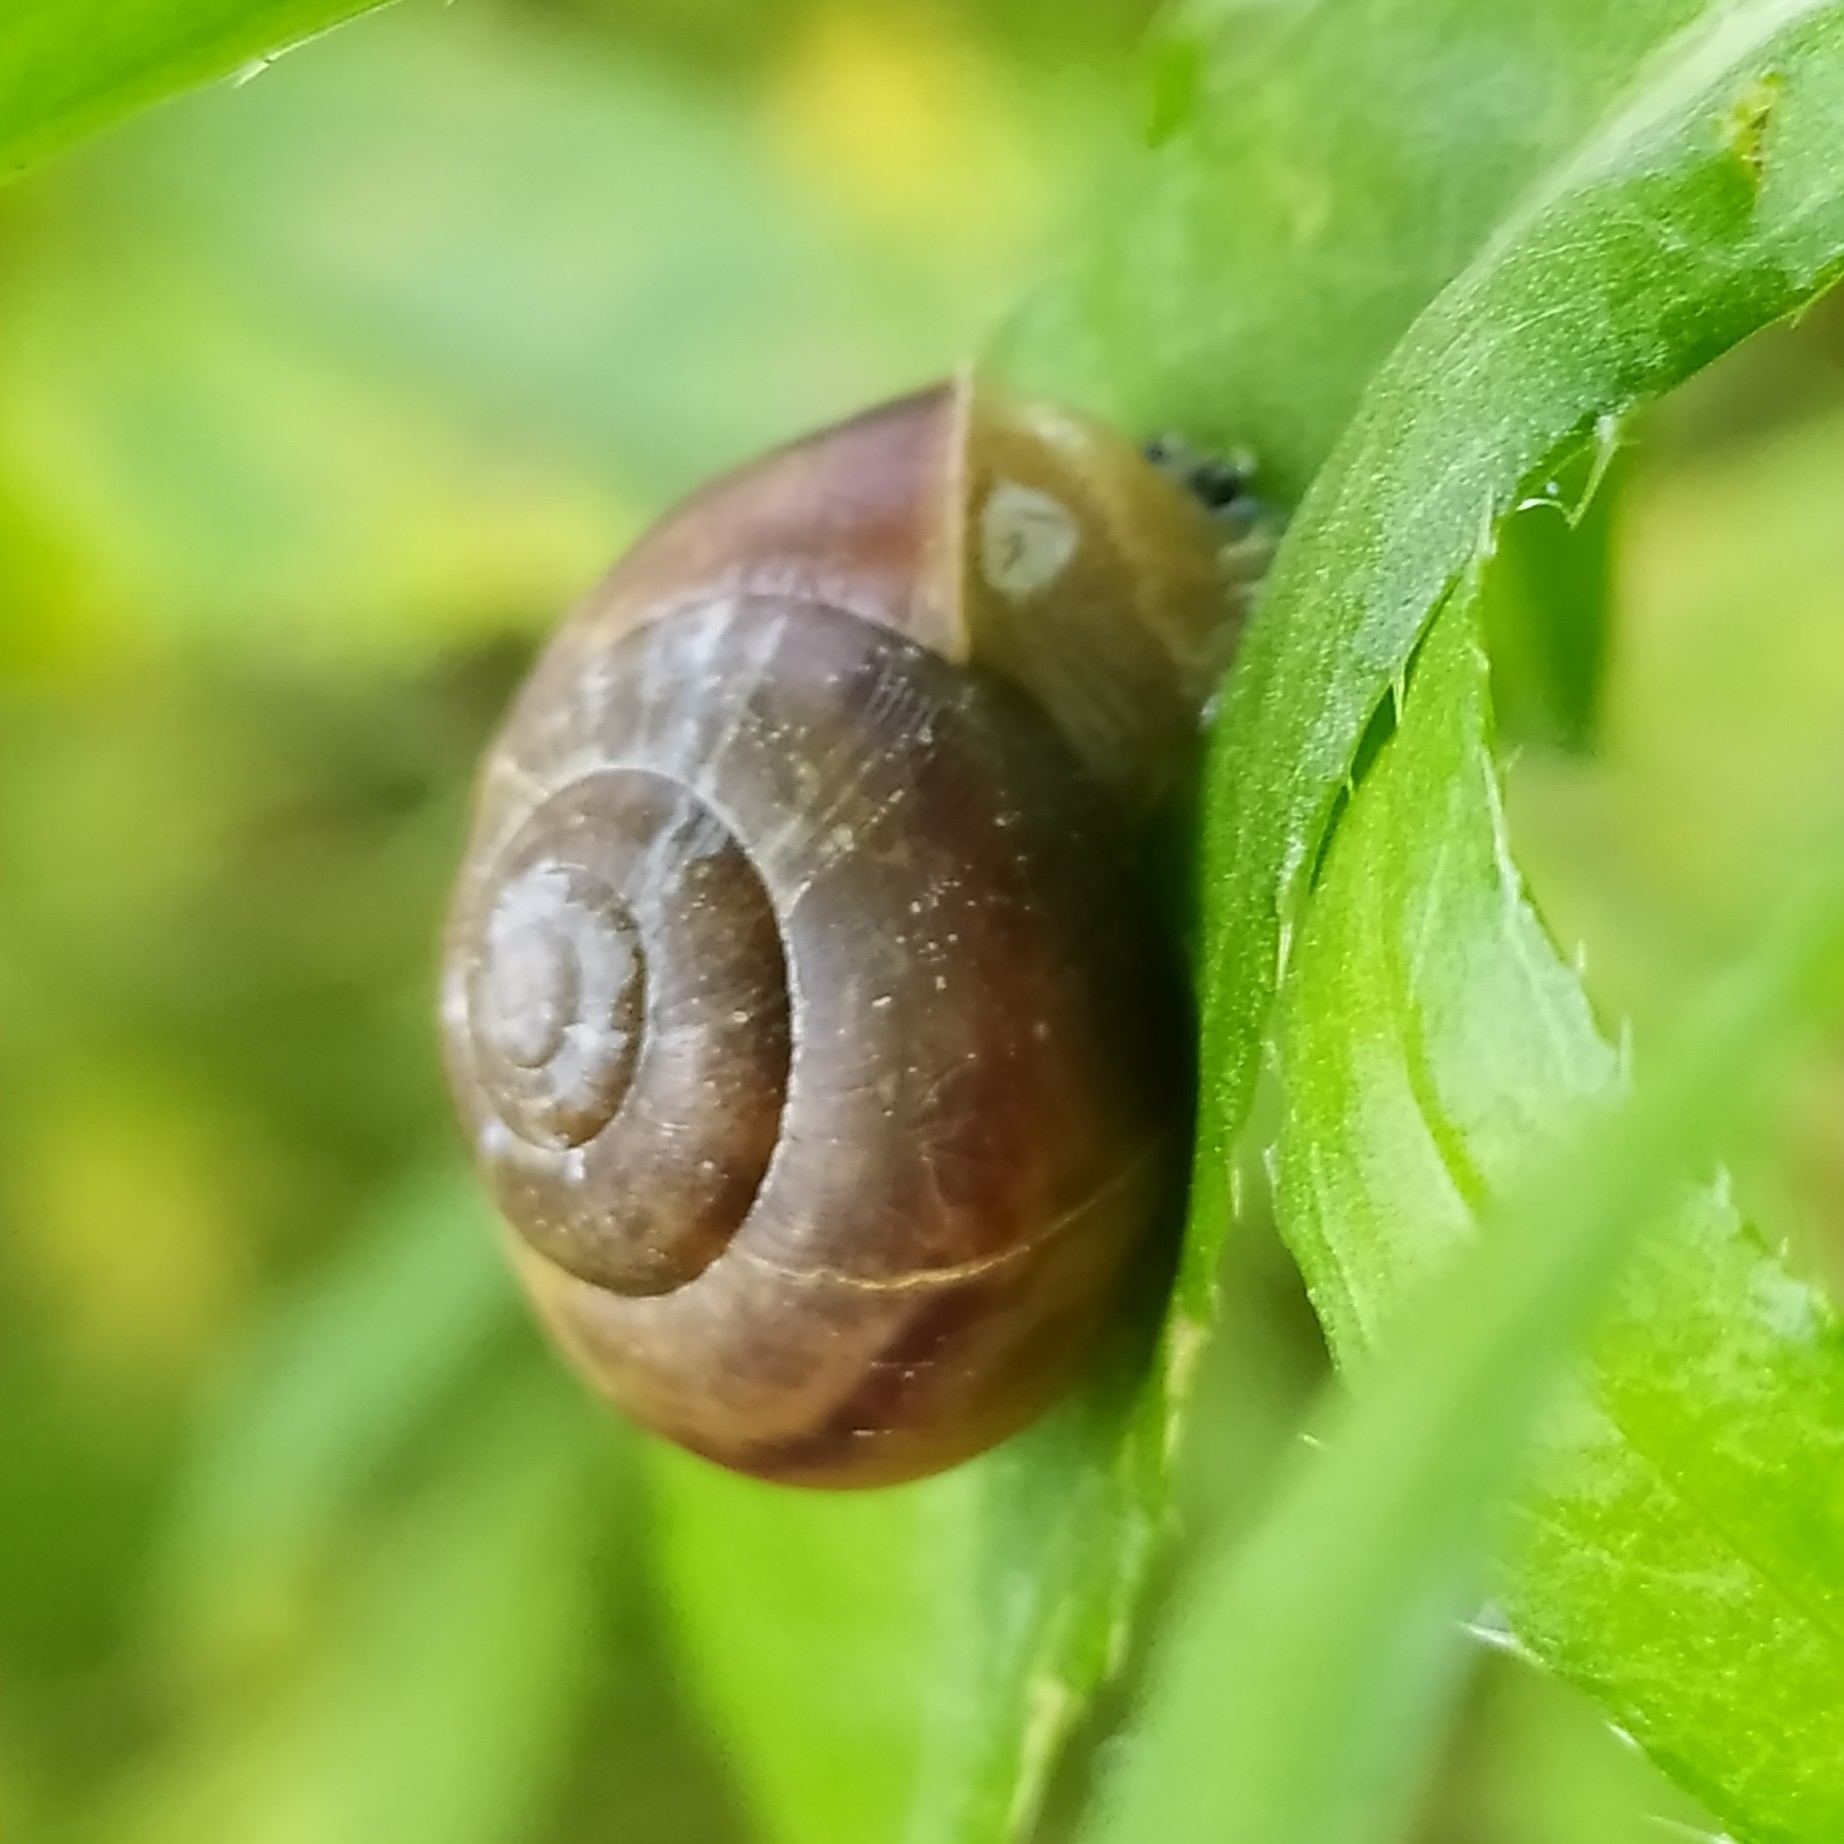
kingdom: Animalia
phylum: Mollusca
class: Gastropoda
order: Stylommatophora
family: Camaenidae
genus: Fruticicola
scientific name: Fruticicola fruticum
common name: Bush snail
